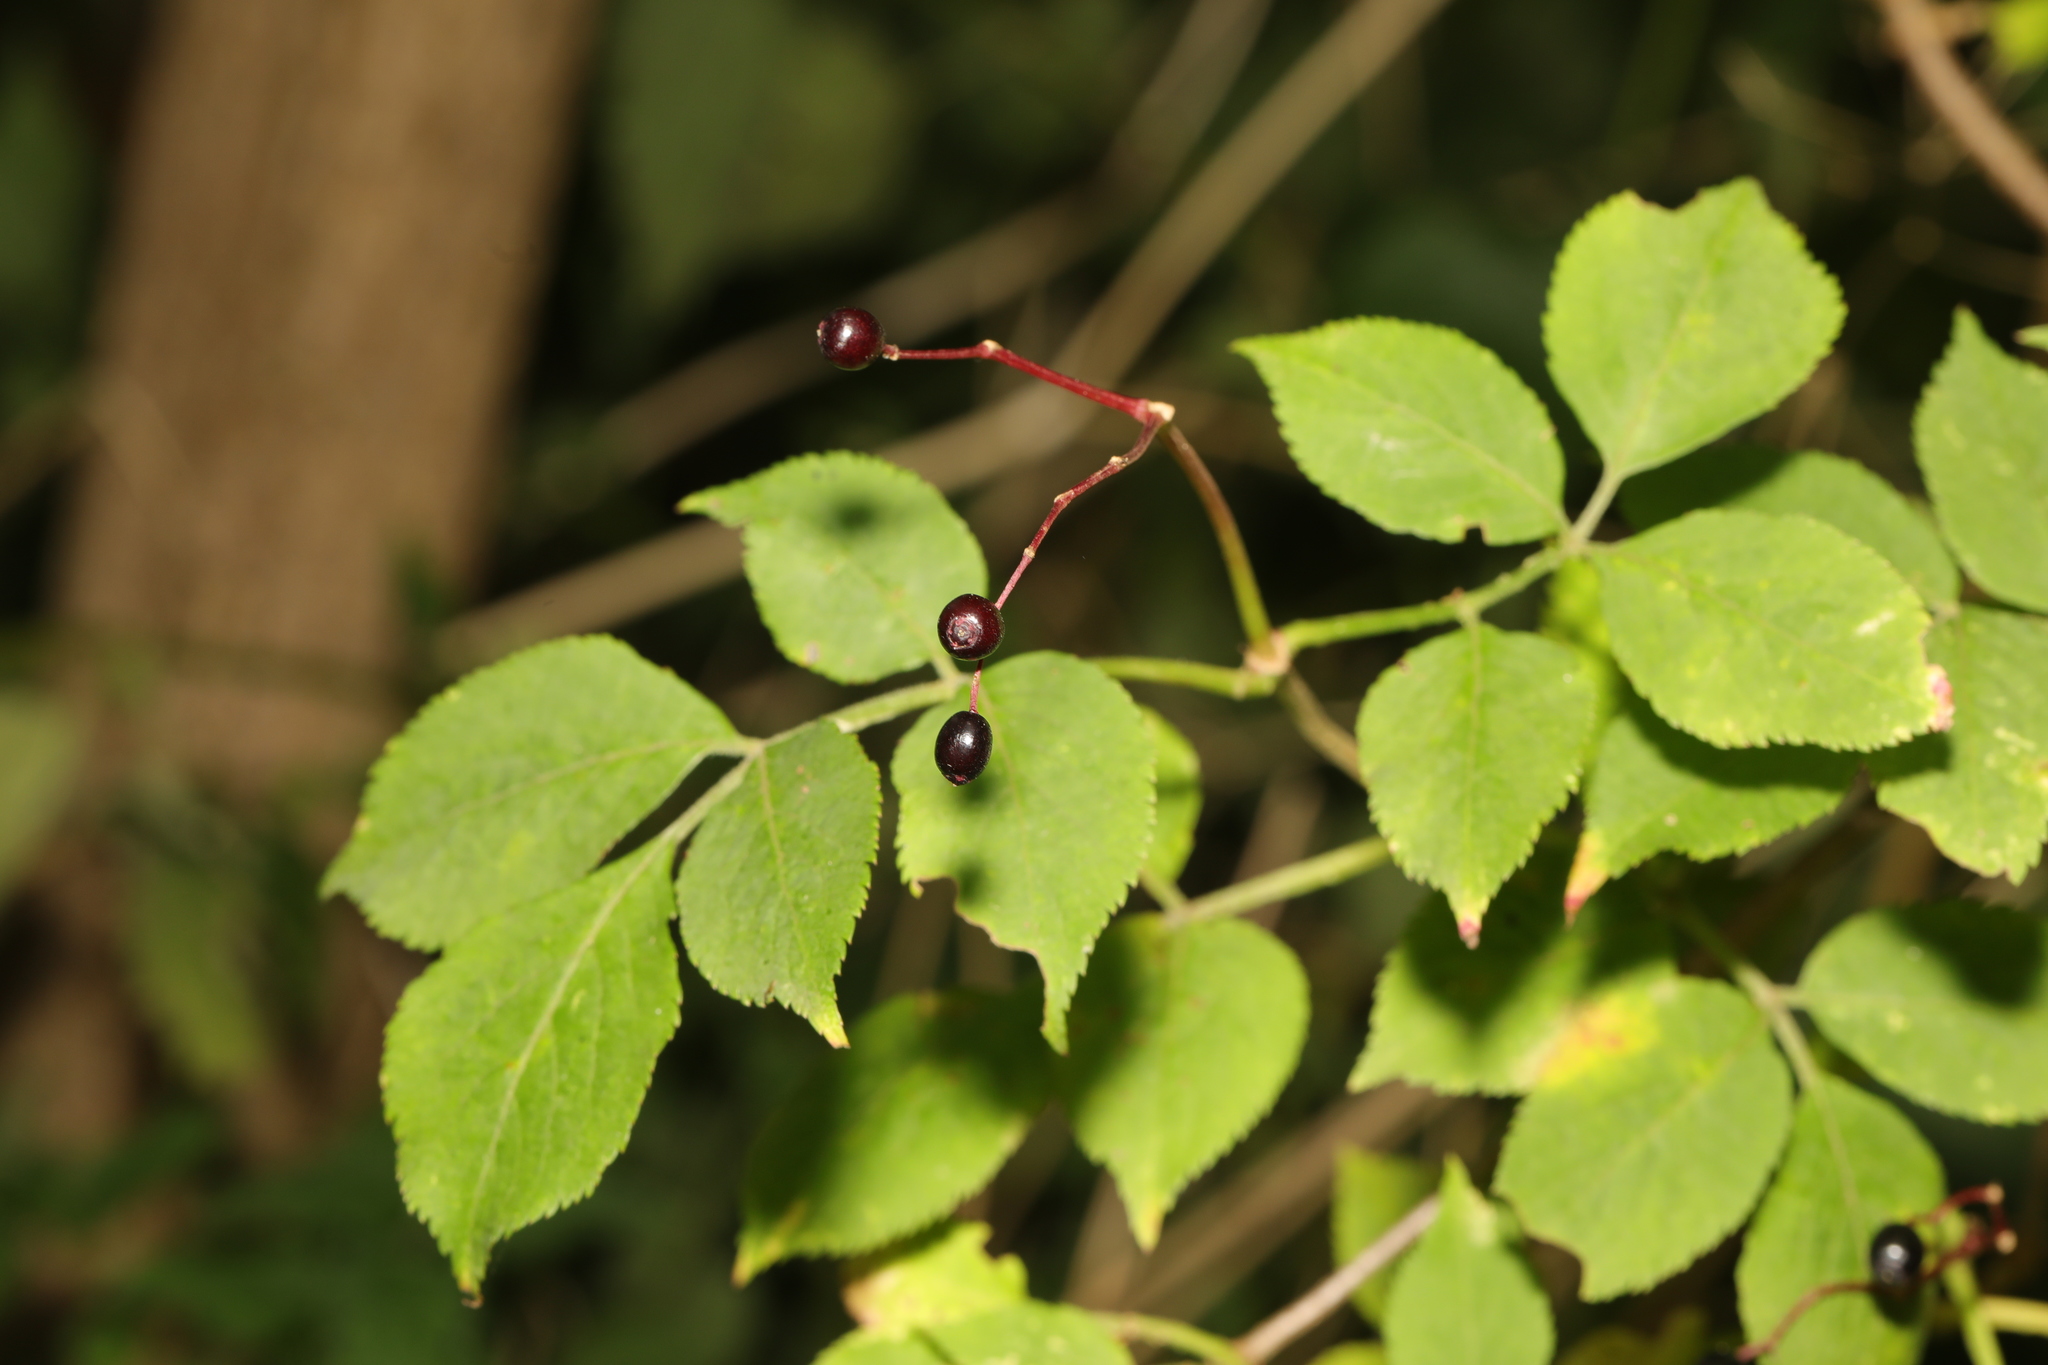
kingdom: Plantae
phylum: Tracheophyta
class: Magnoliopsida
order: Dipsacales
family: Viburnaceae
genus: Sambucus
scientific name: Sambucus nigra
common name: Elder
